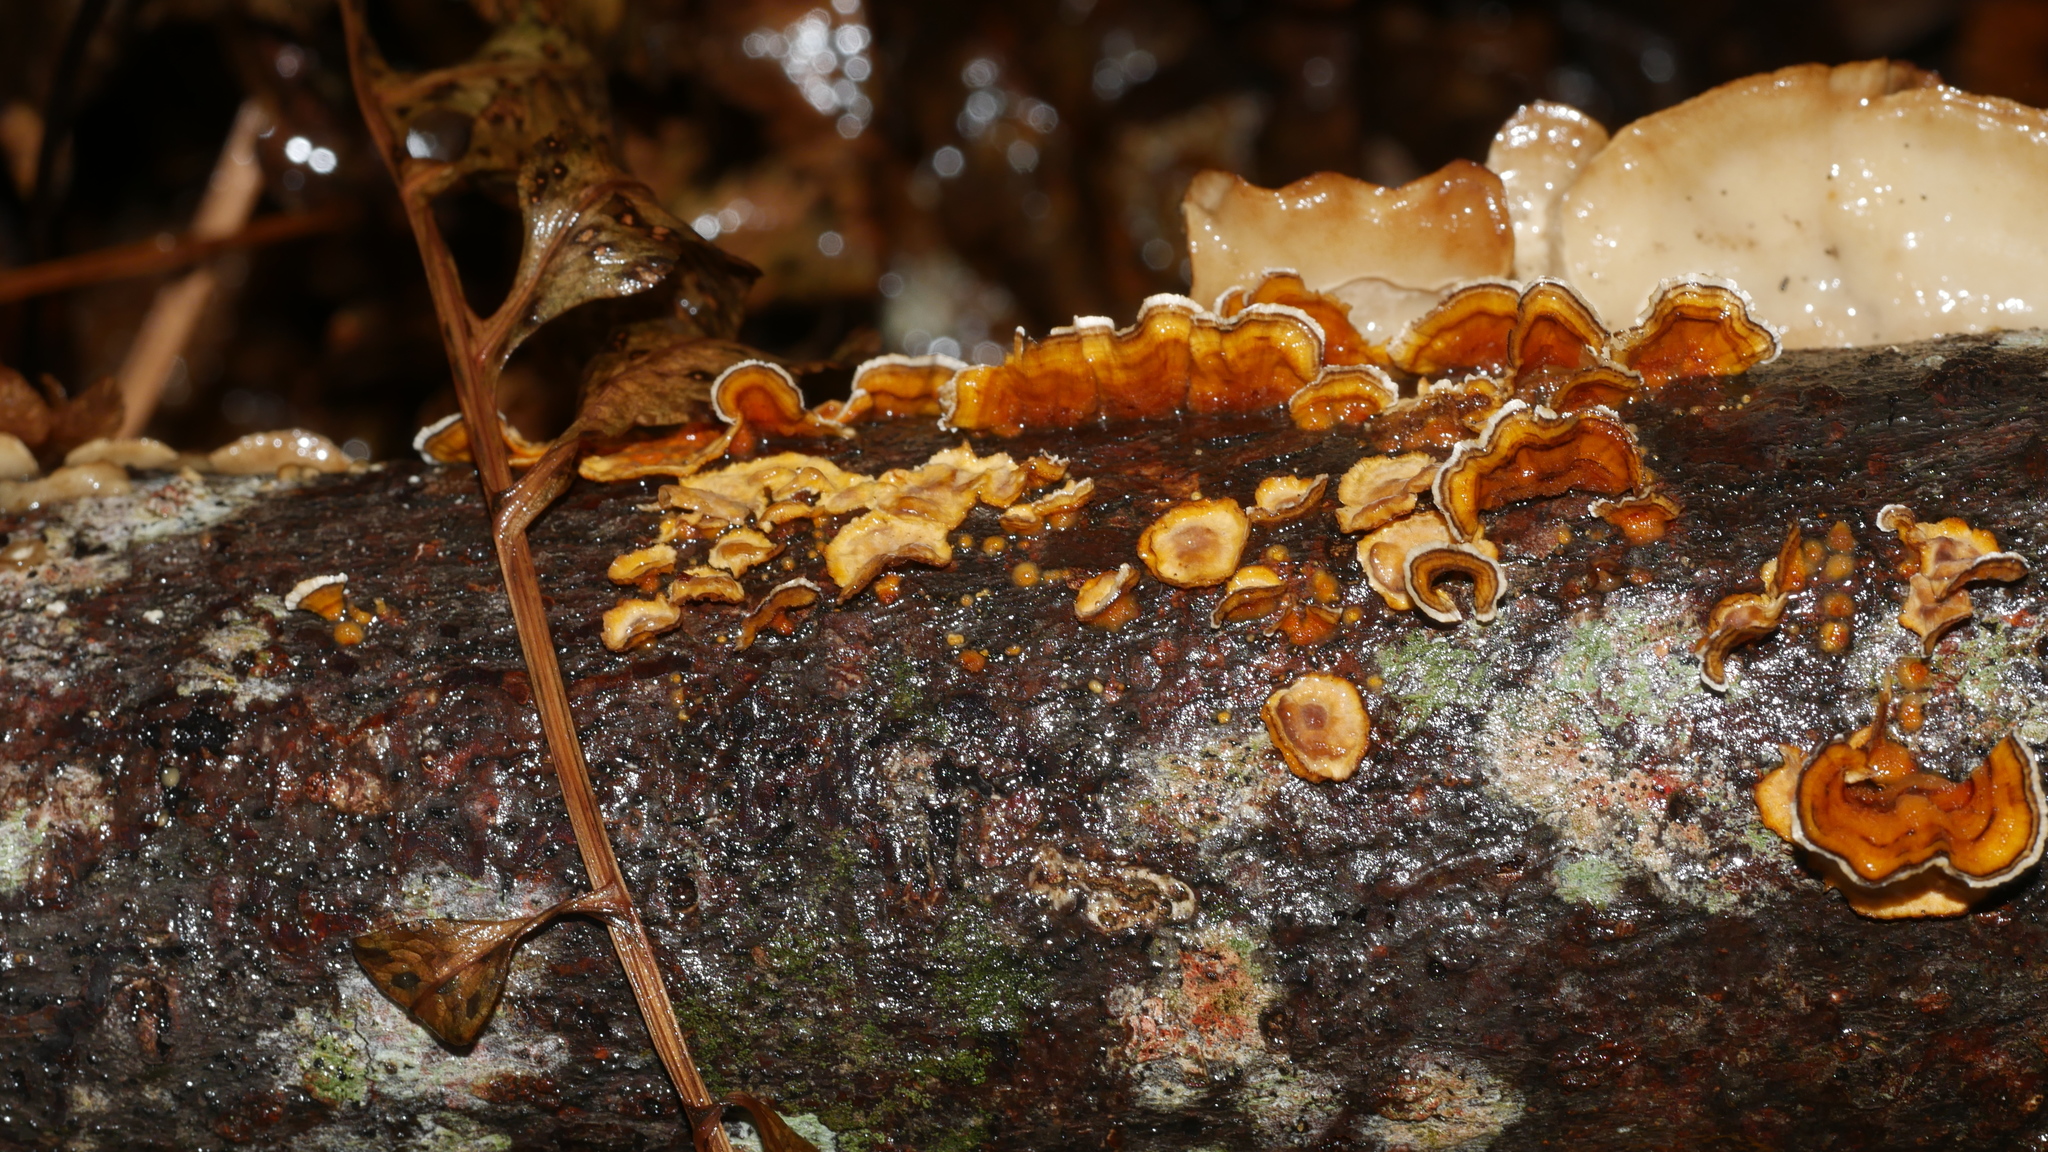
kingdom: Fungi
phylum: Basidiomycota
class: Agaricomycetes
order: Russulales
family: Stereaceae
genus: Stereum
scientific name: Stereum complicatum
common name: Crowded parchment
